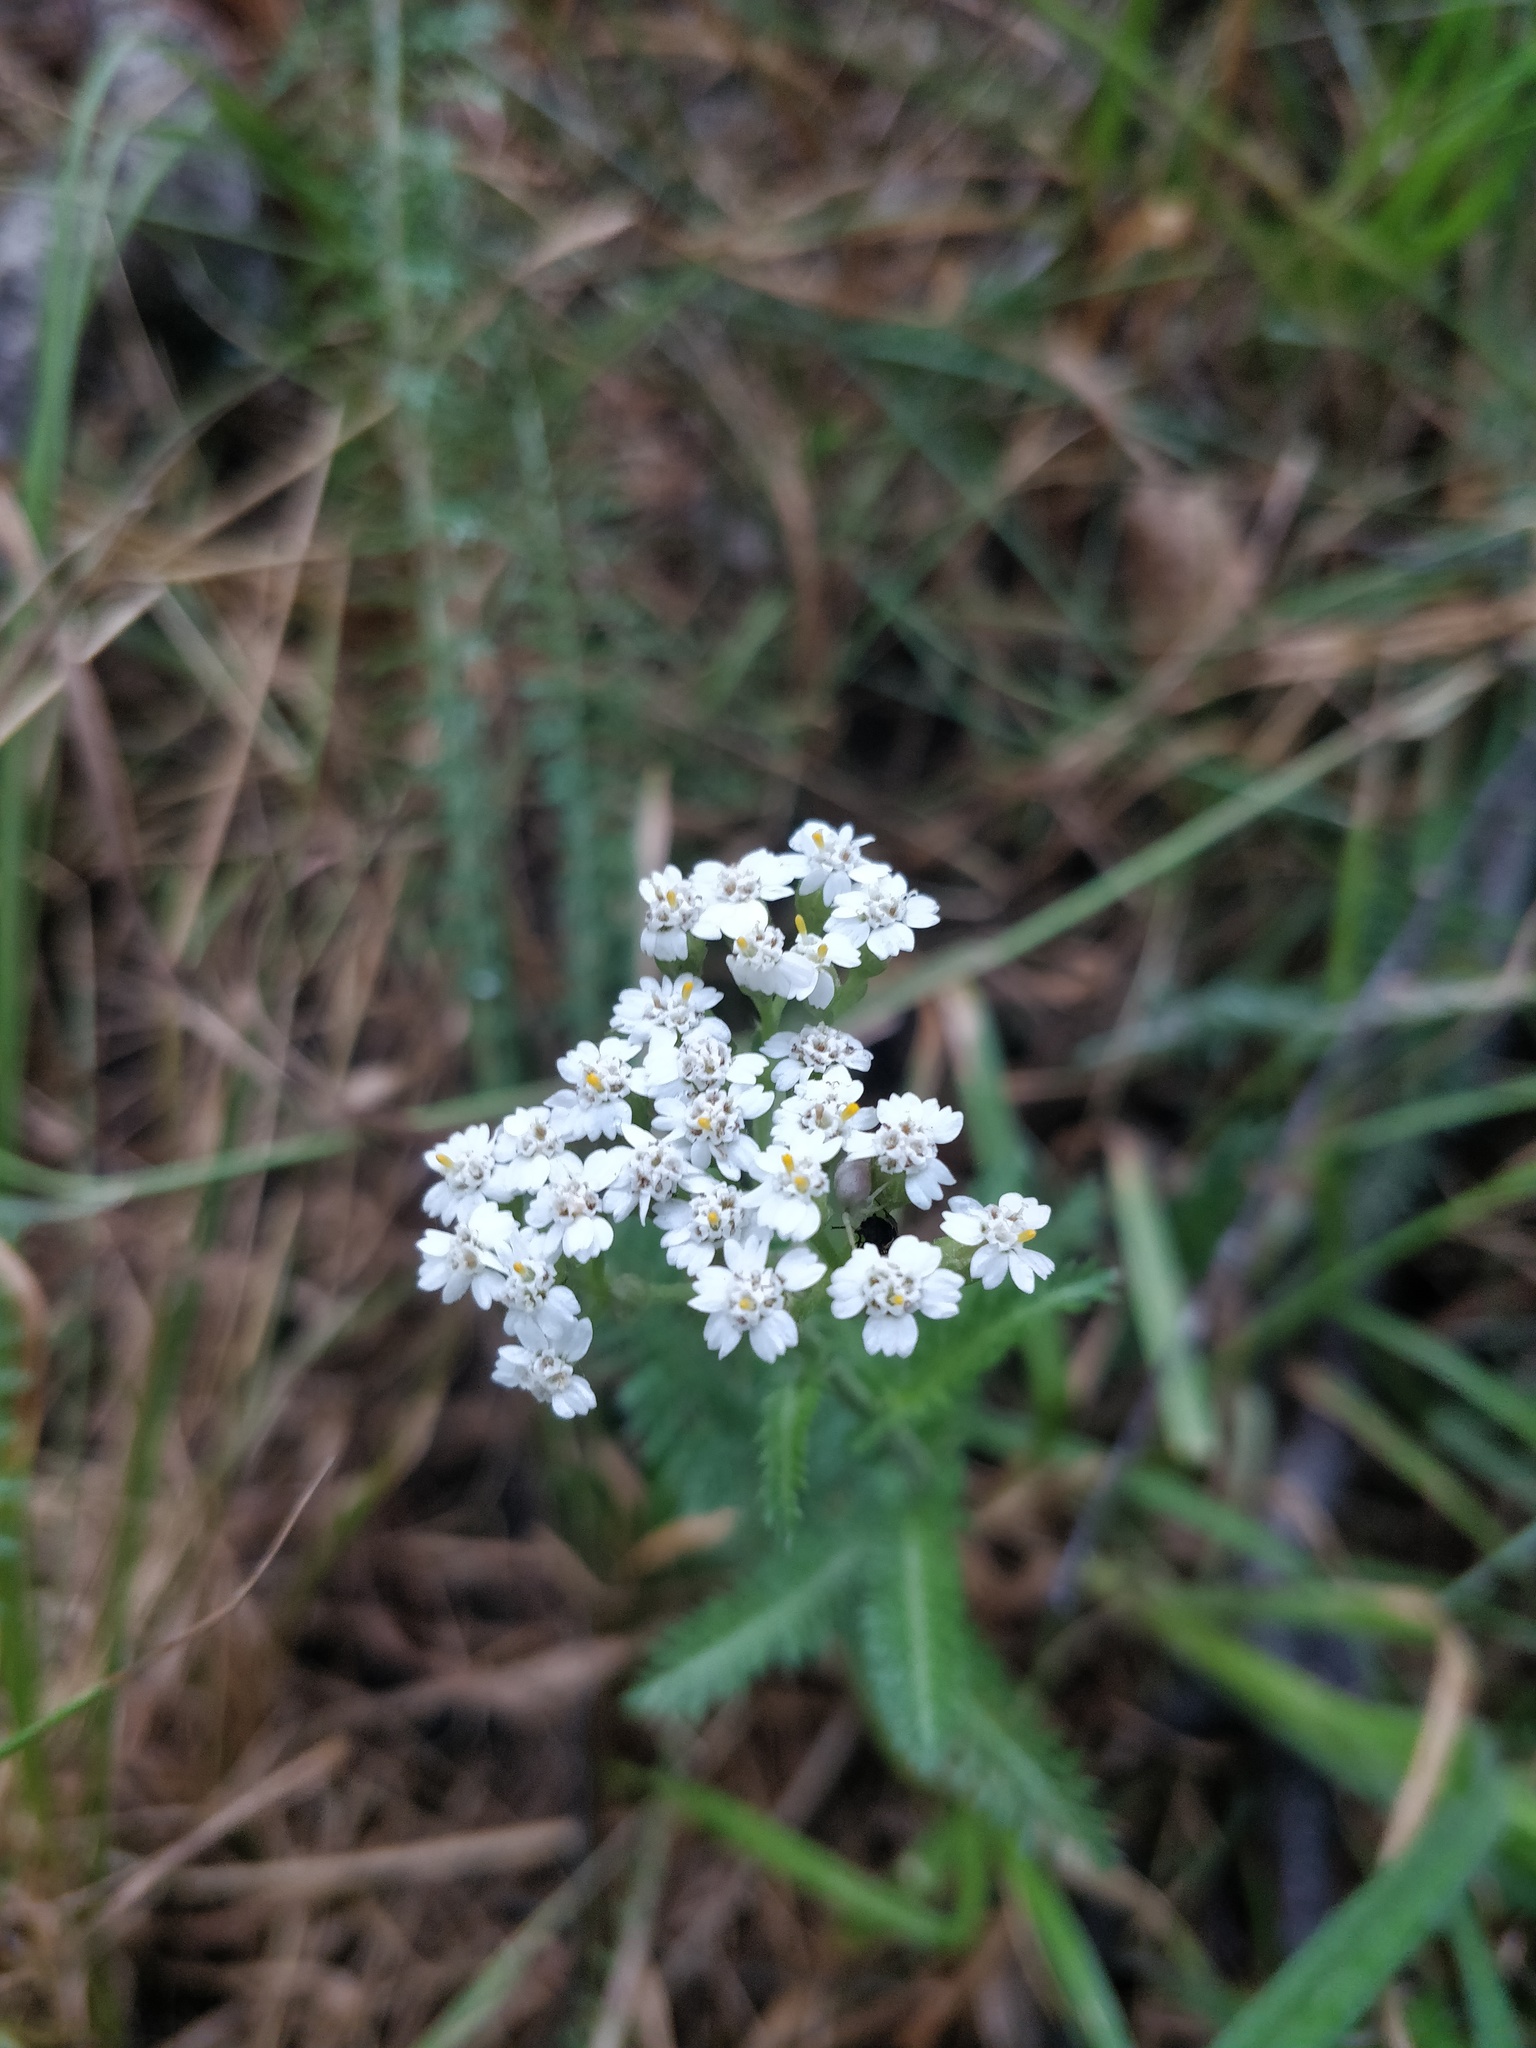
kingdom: Plantae
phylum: Tracheophyta
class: Magnoliopsida
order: Asterales
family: Asteraceae
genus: Achillea
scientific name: Achillea millefolium
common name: Yarrow
